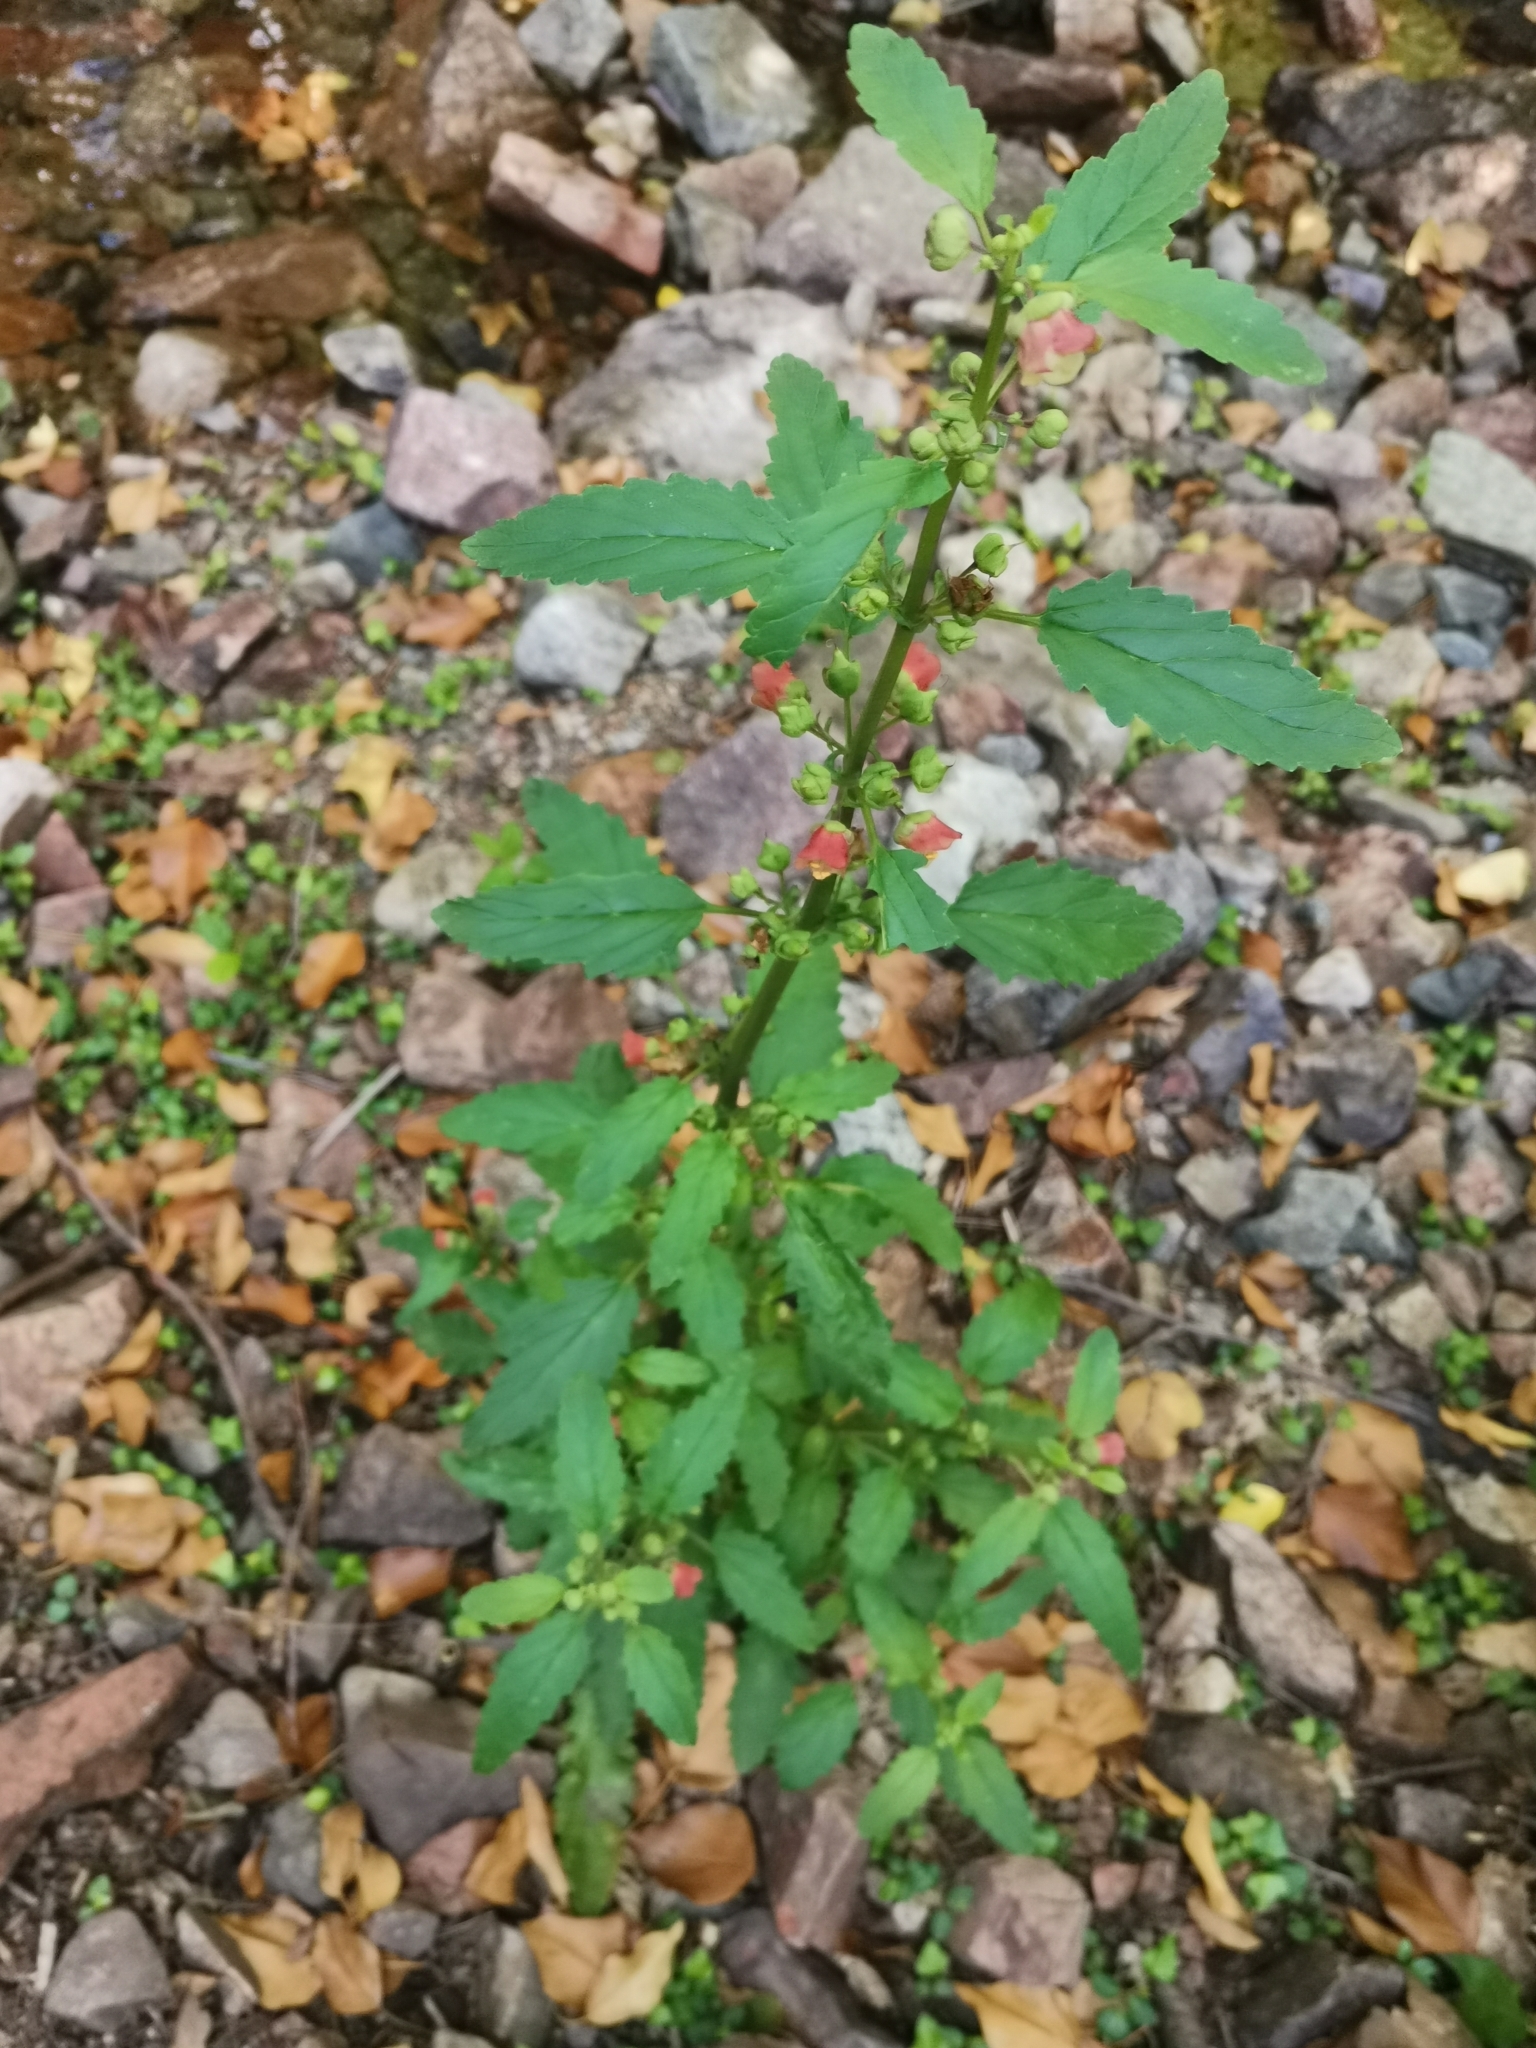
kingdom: Plantae
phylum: Tracheophyta
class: Magnoliopsida
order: Lamiales
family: Scrophulariaceae
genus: Scrophularia
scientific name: Scrophularia trifoliata
